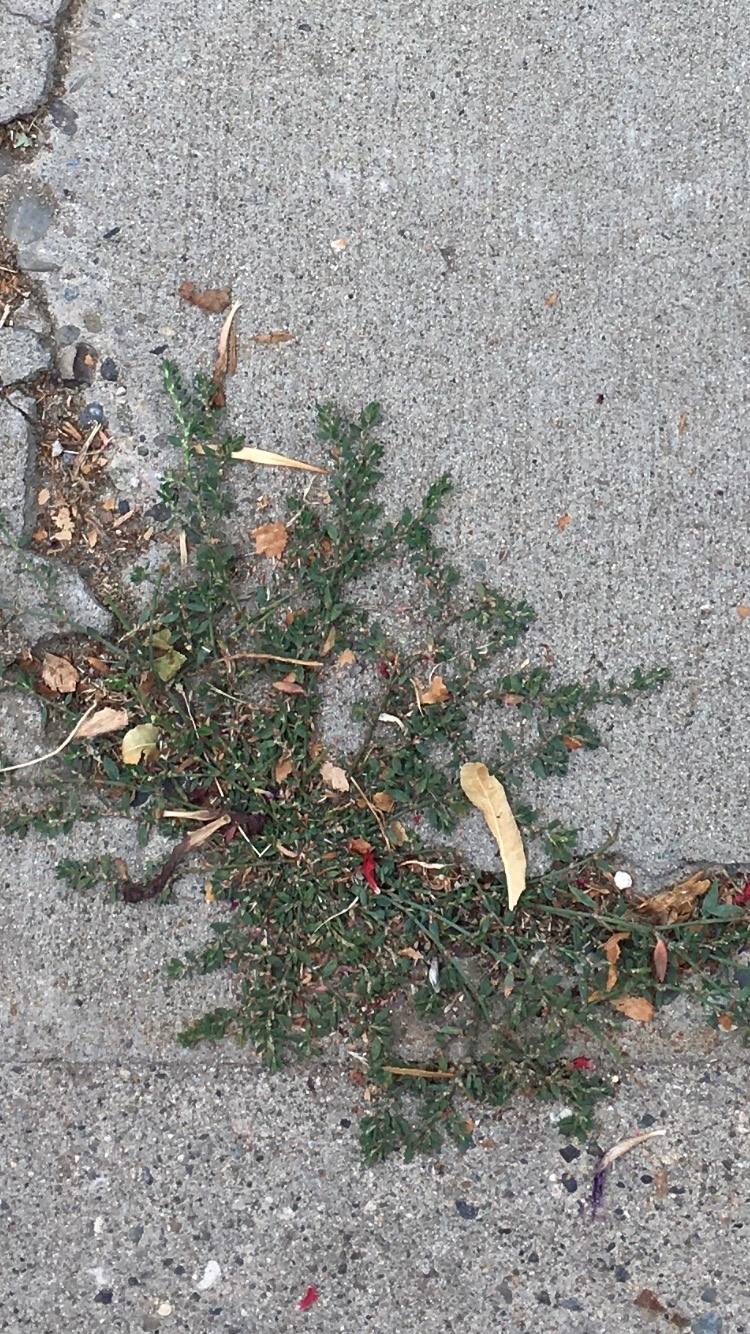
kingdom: Plantae
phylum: Tracheophyta
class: Magnoliopsida
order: Caryophyllales
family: Polygonaceae
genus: Polygonum
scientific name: Polygonum aviculare
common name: Prostrate knotweed
